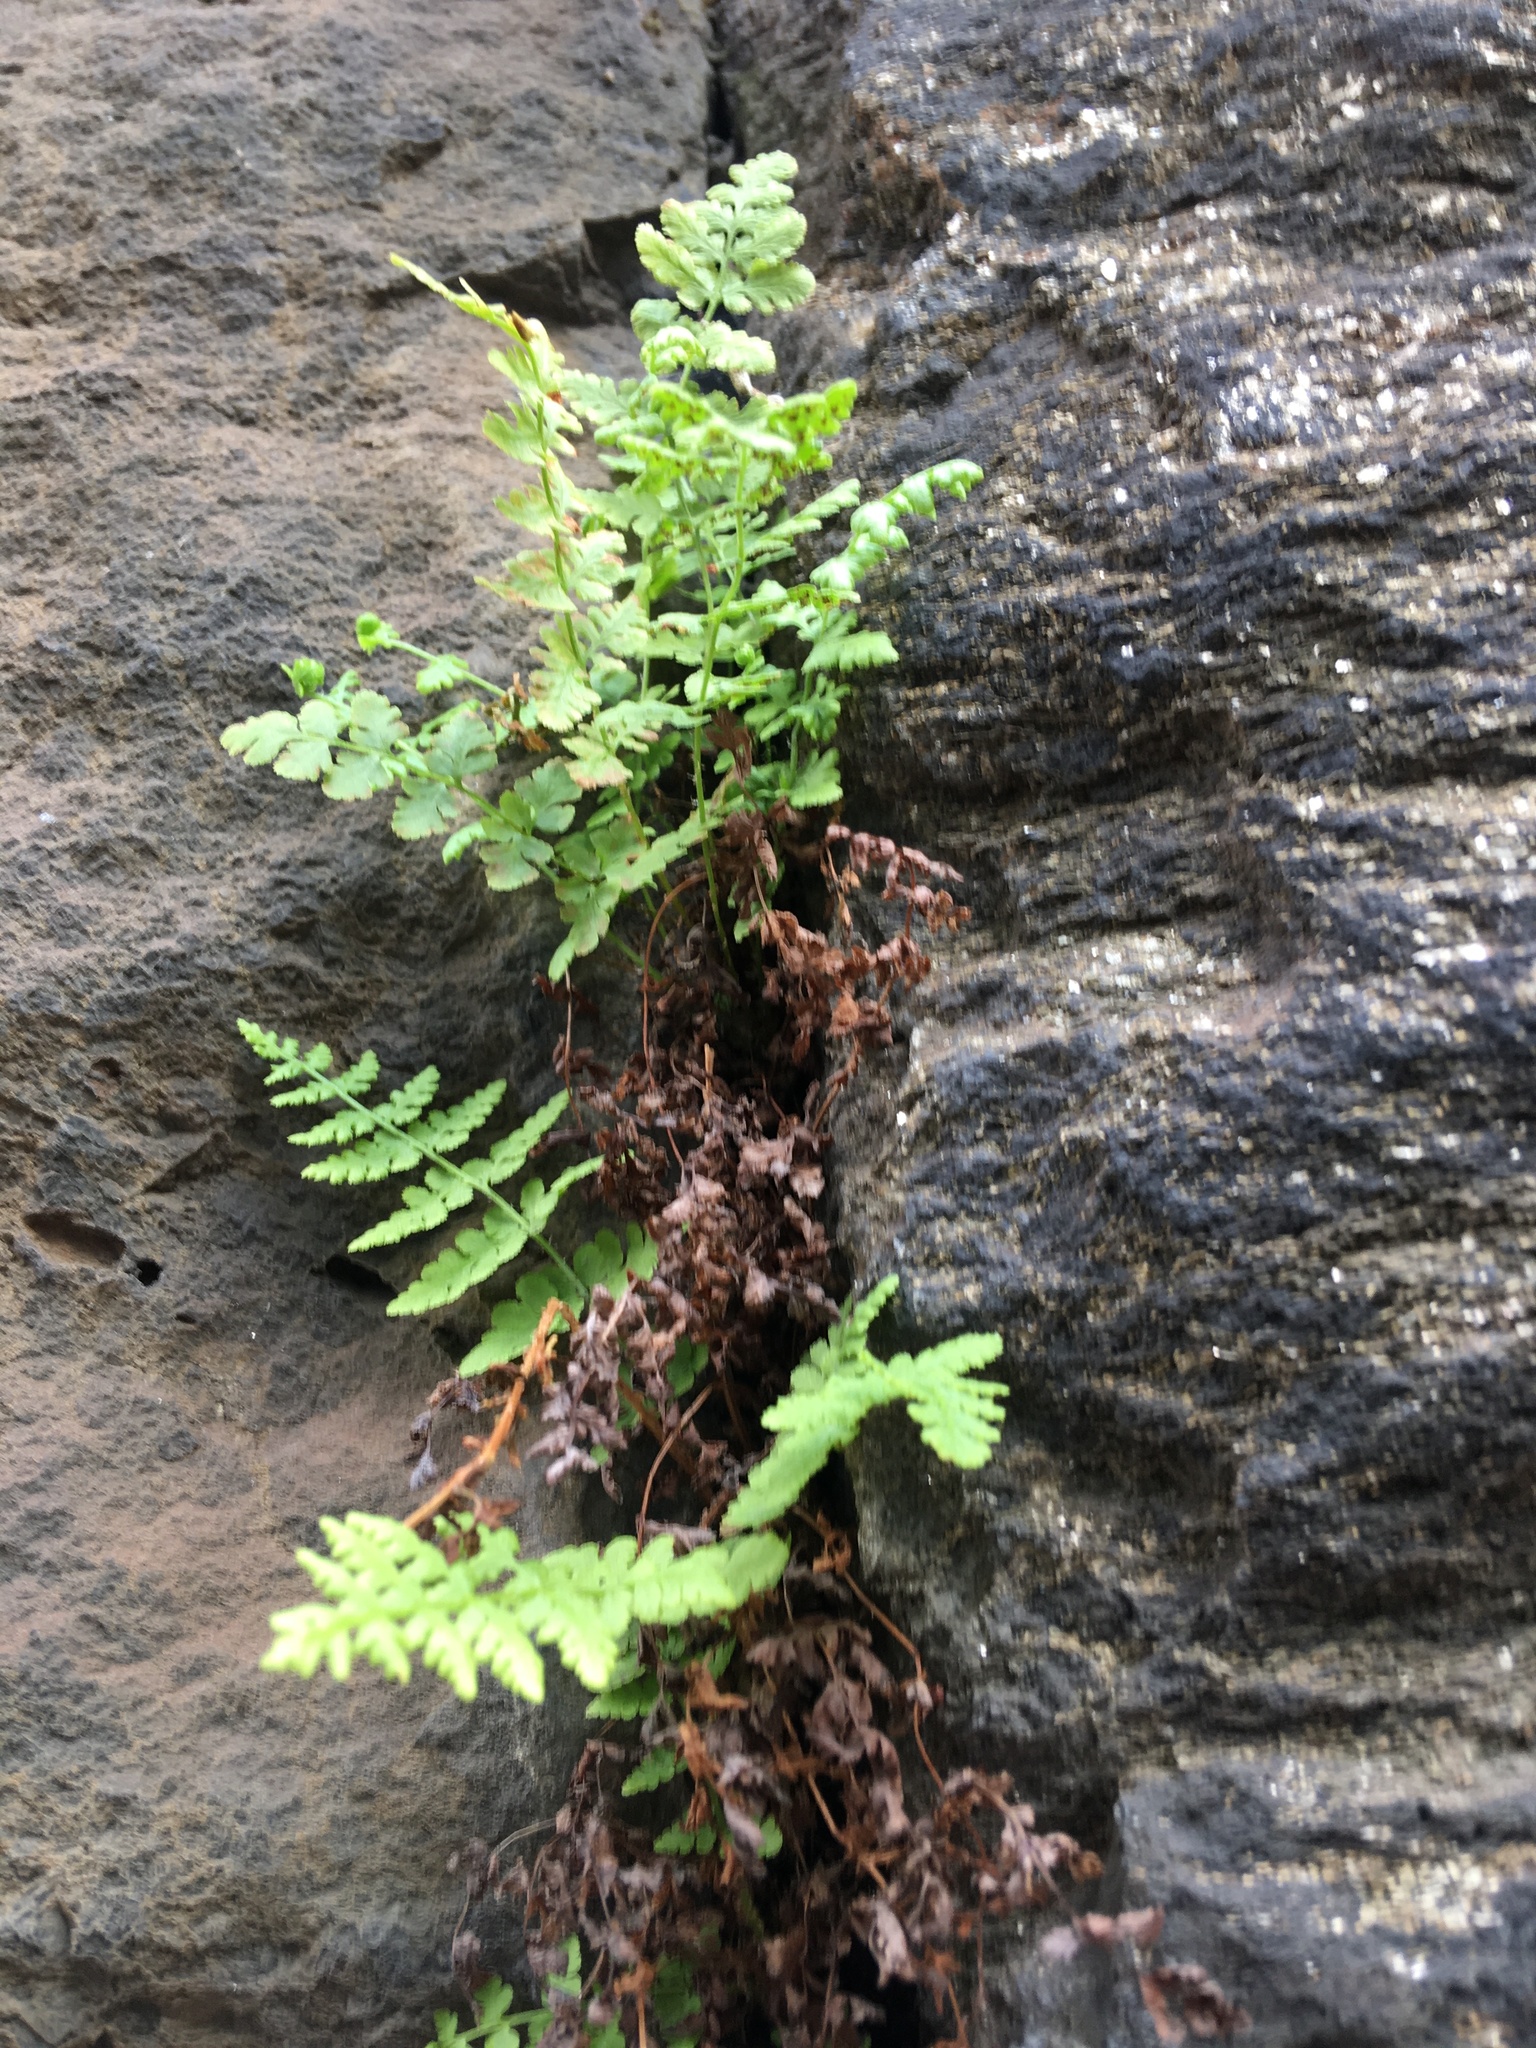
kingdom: Plantae
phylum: Tracheophyta
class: Polypodiopsida
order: Polypodiales
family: Woodsiaceae
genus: Physematium
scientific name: Physematium obtusum
